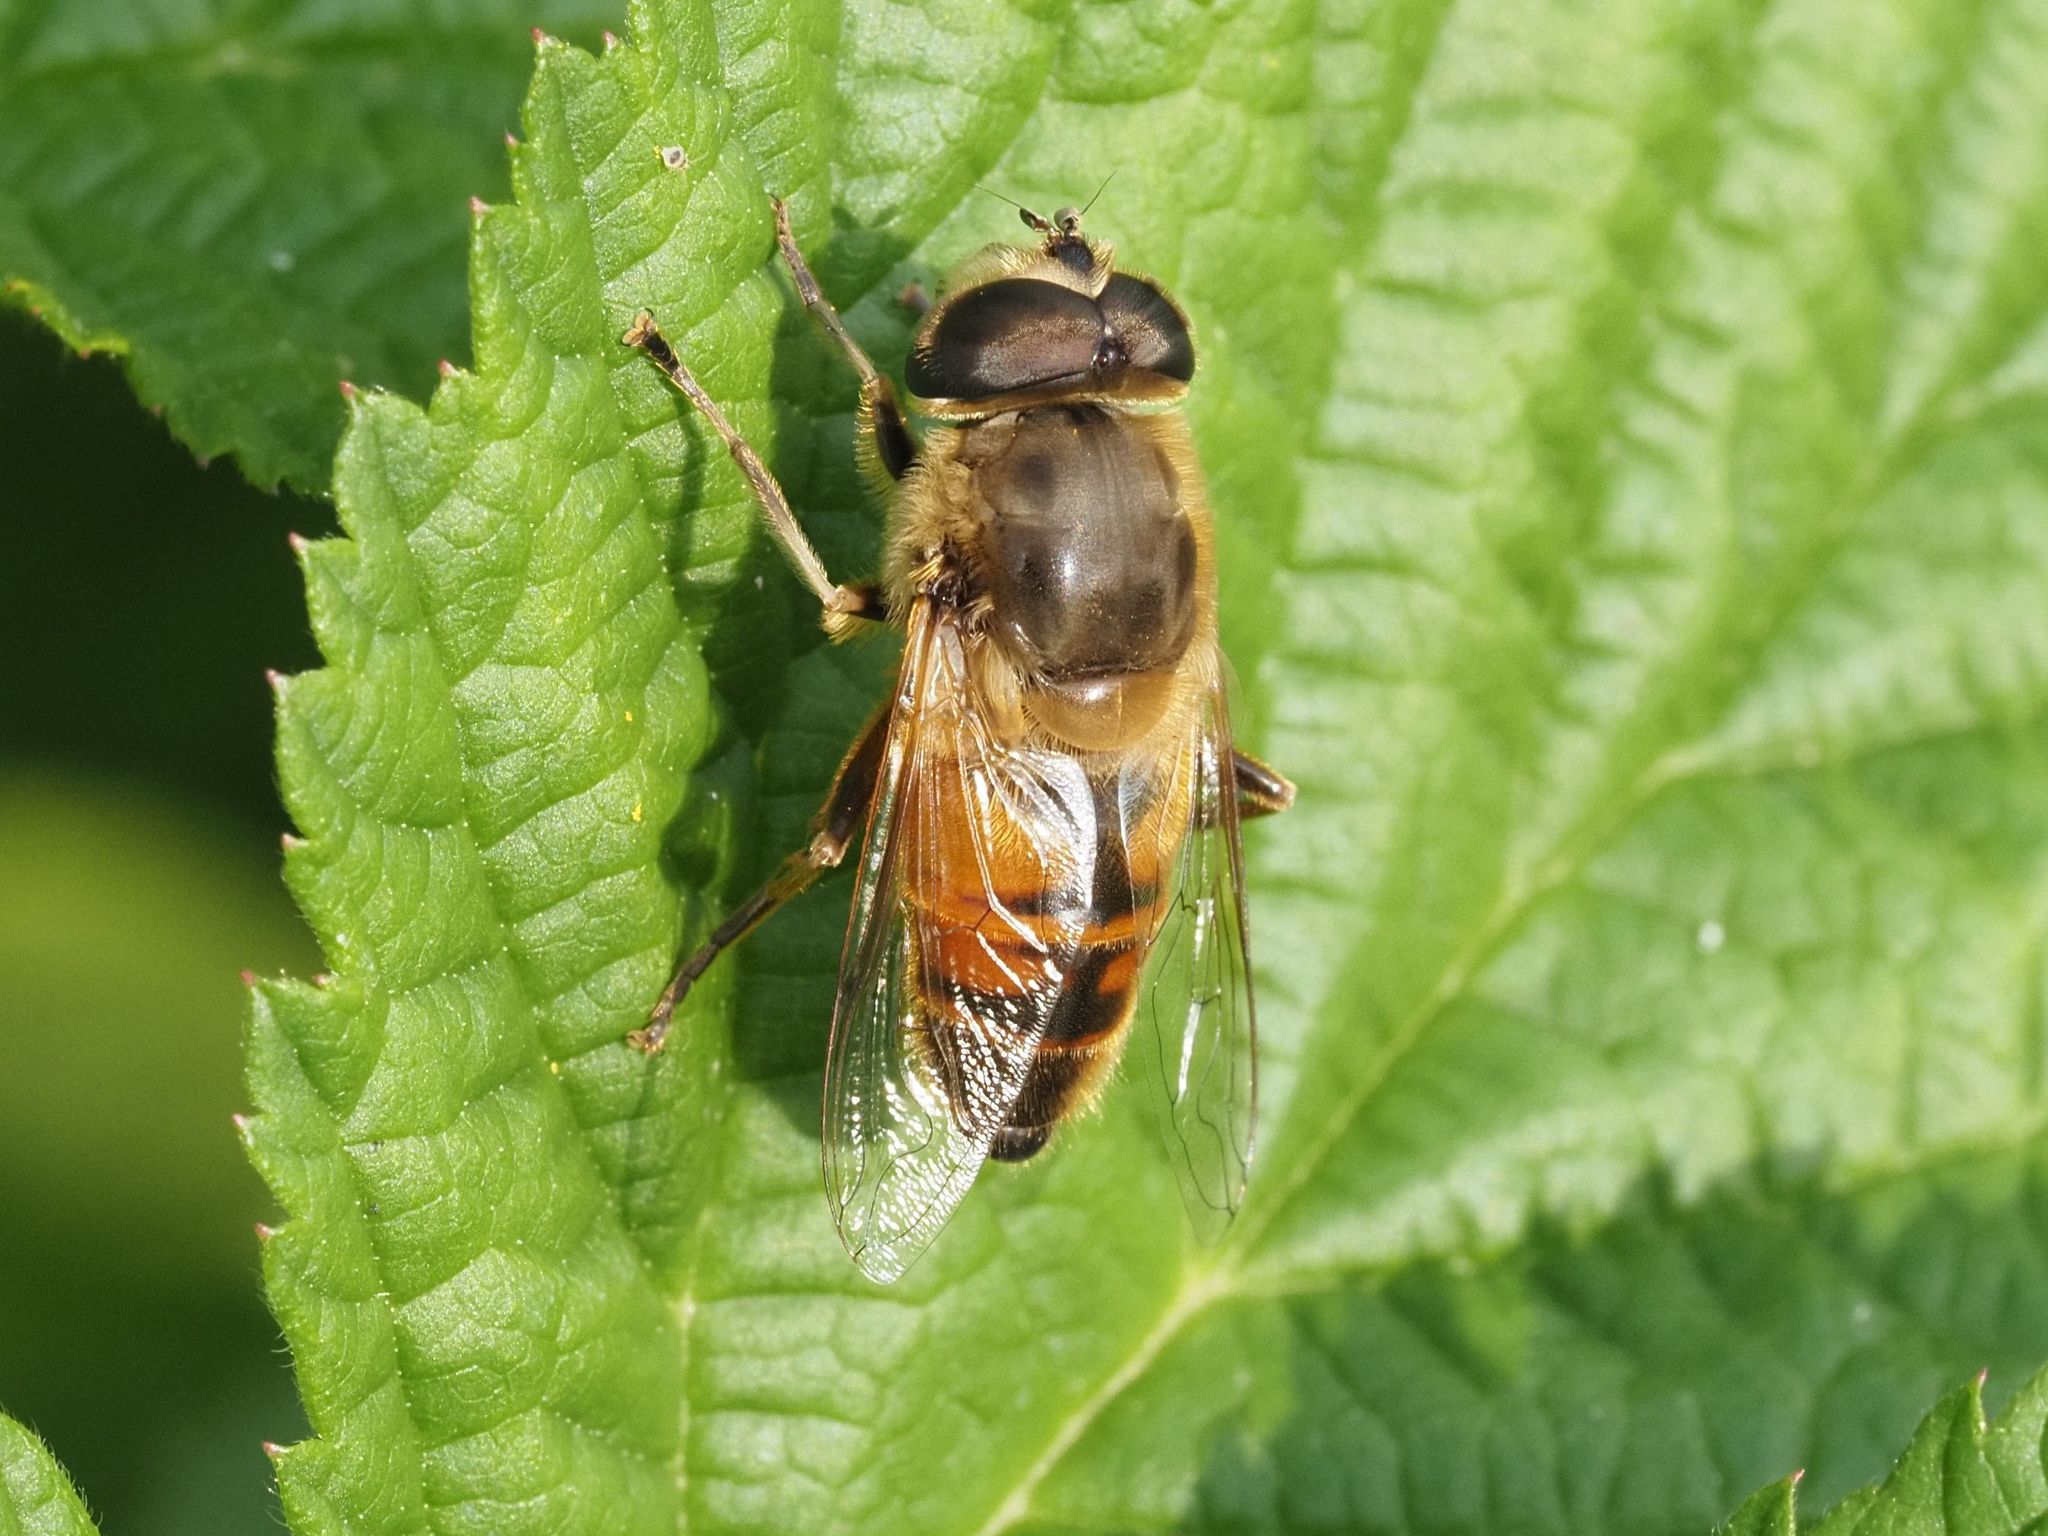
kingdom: Animalia
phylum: Arthropoda
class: Insecta
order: Diptera
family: Syrphidae
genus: Eristalis
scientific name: Eristalis tenax
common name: Drone fly
